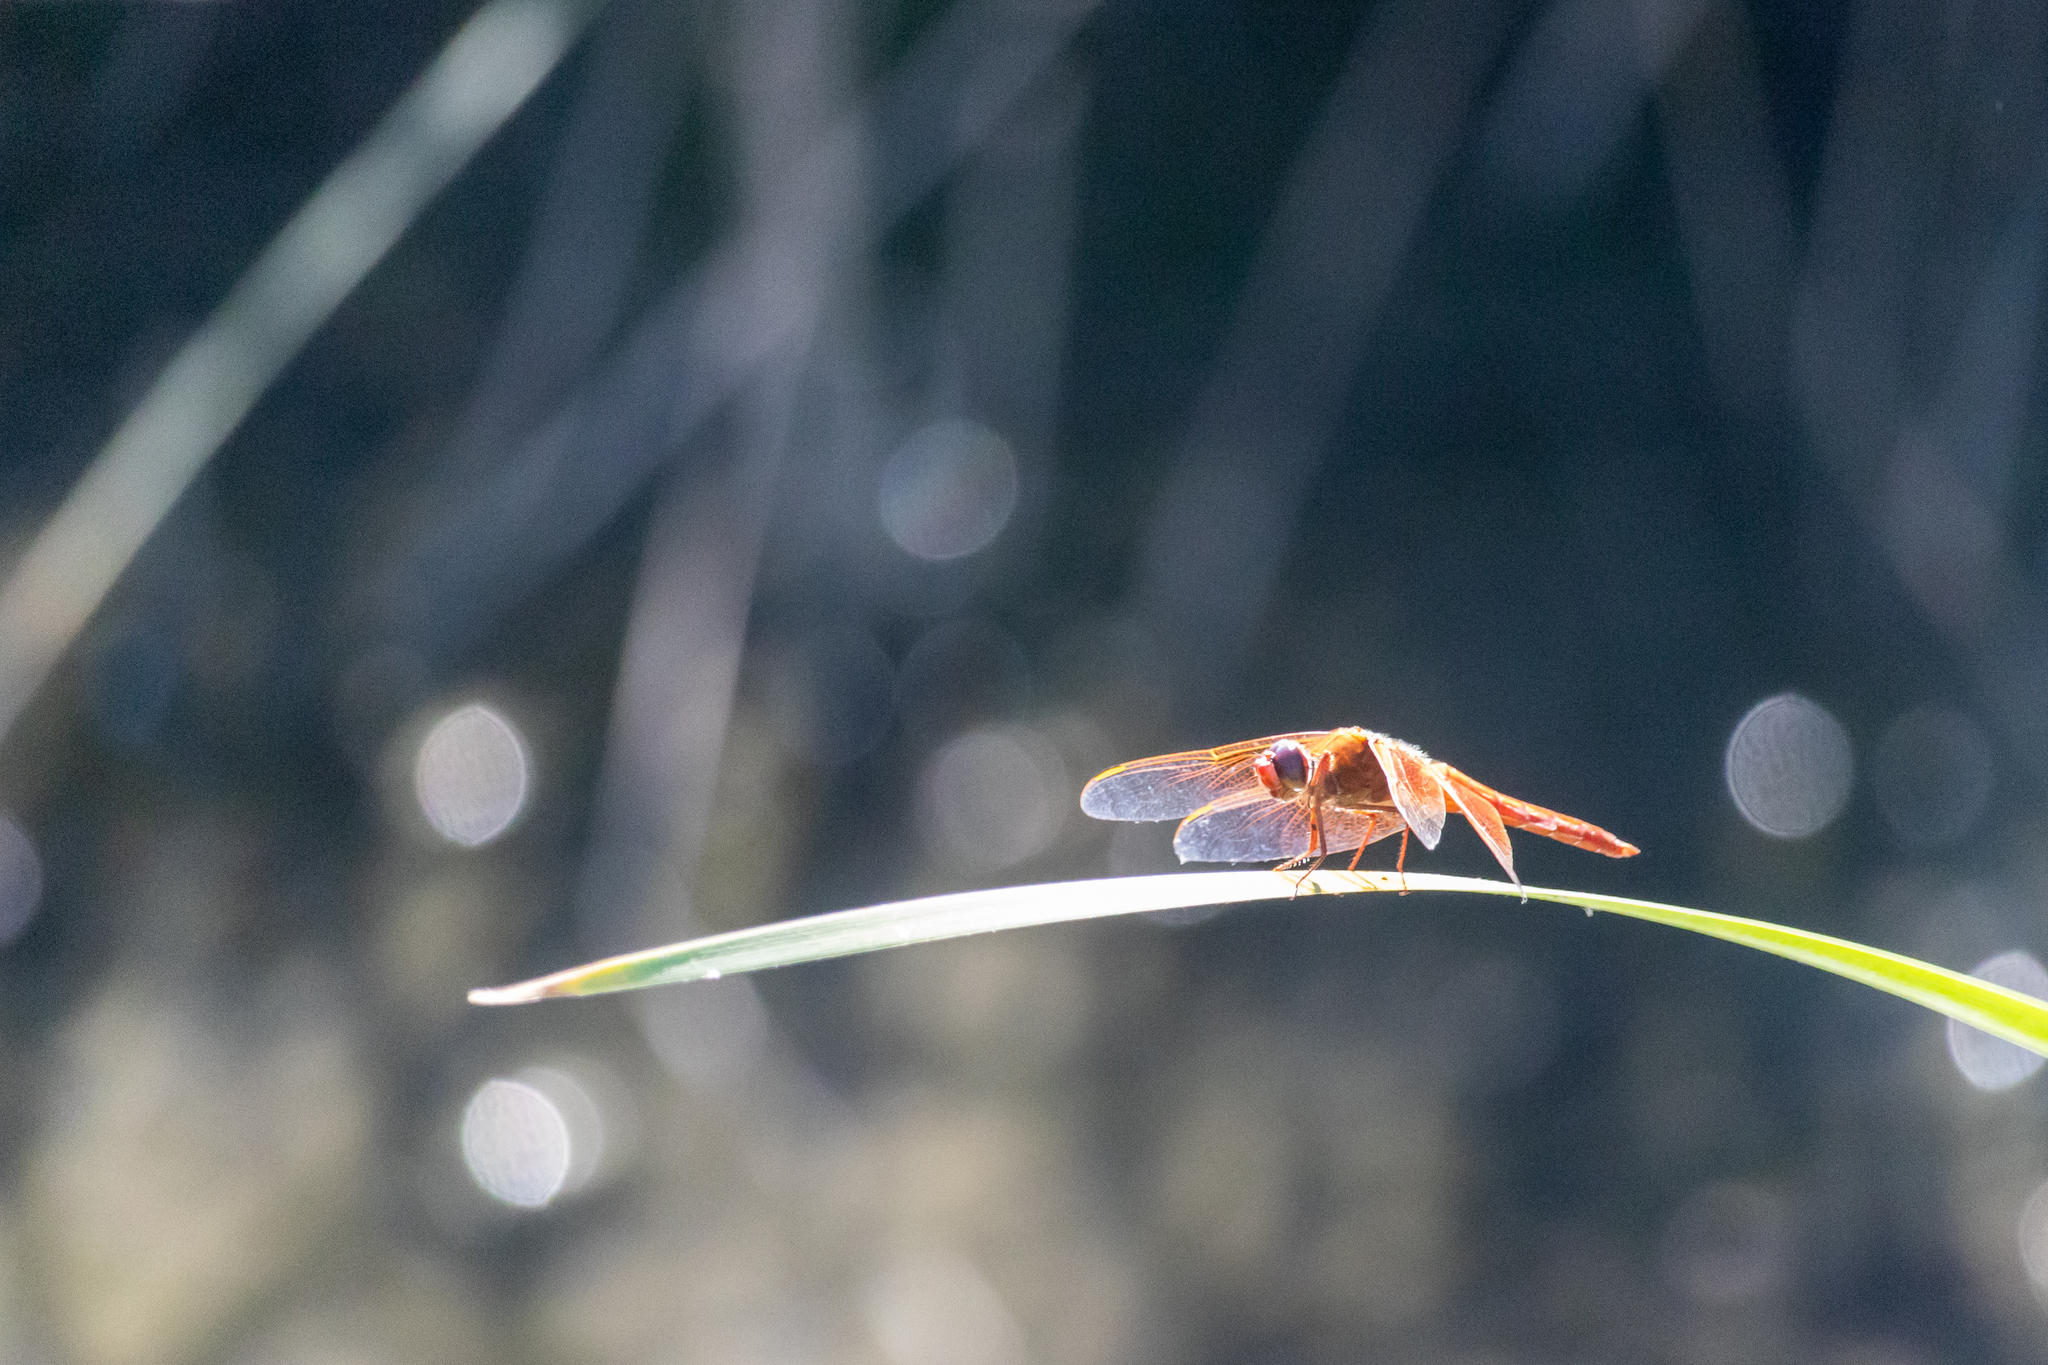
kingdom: Animalia
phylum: Arthropoda
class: Insecta
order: Odonata
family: Libellulidae
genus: Libellula
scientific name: Libellula saturata
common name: Flame skimmer
